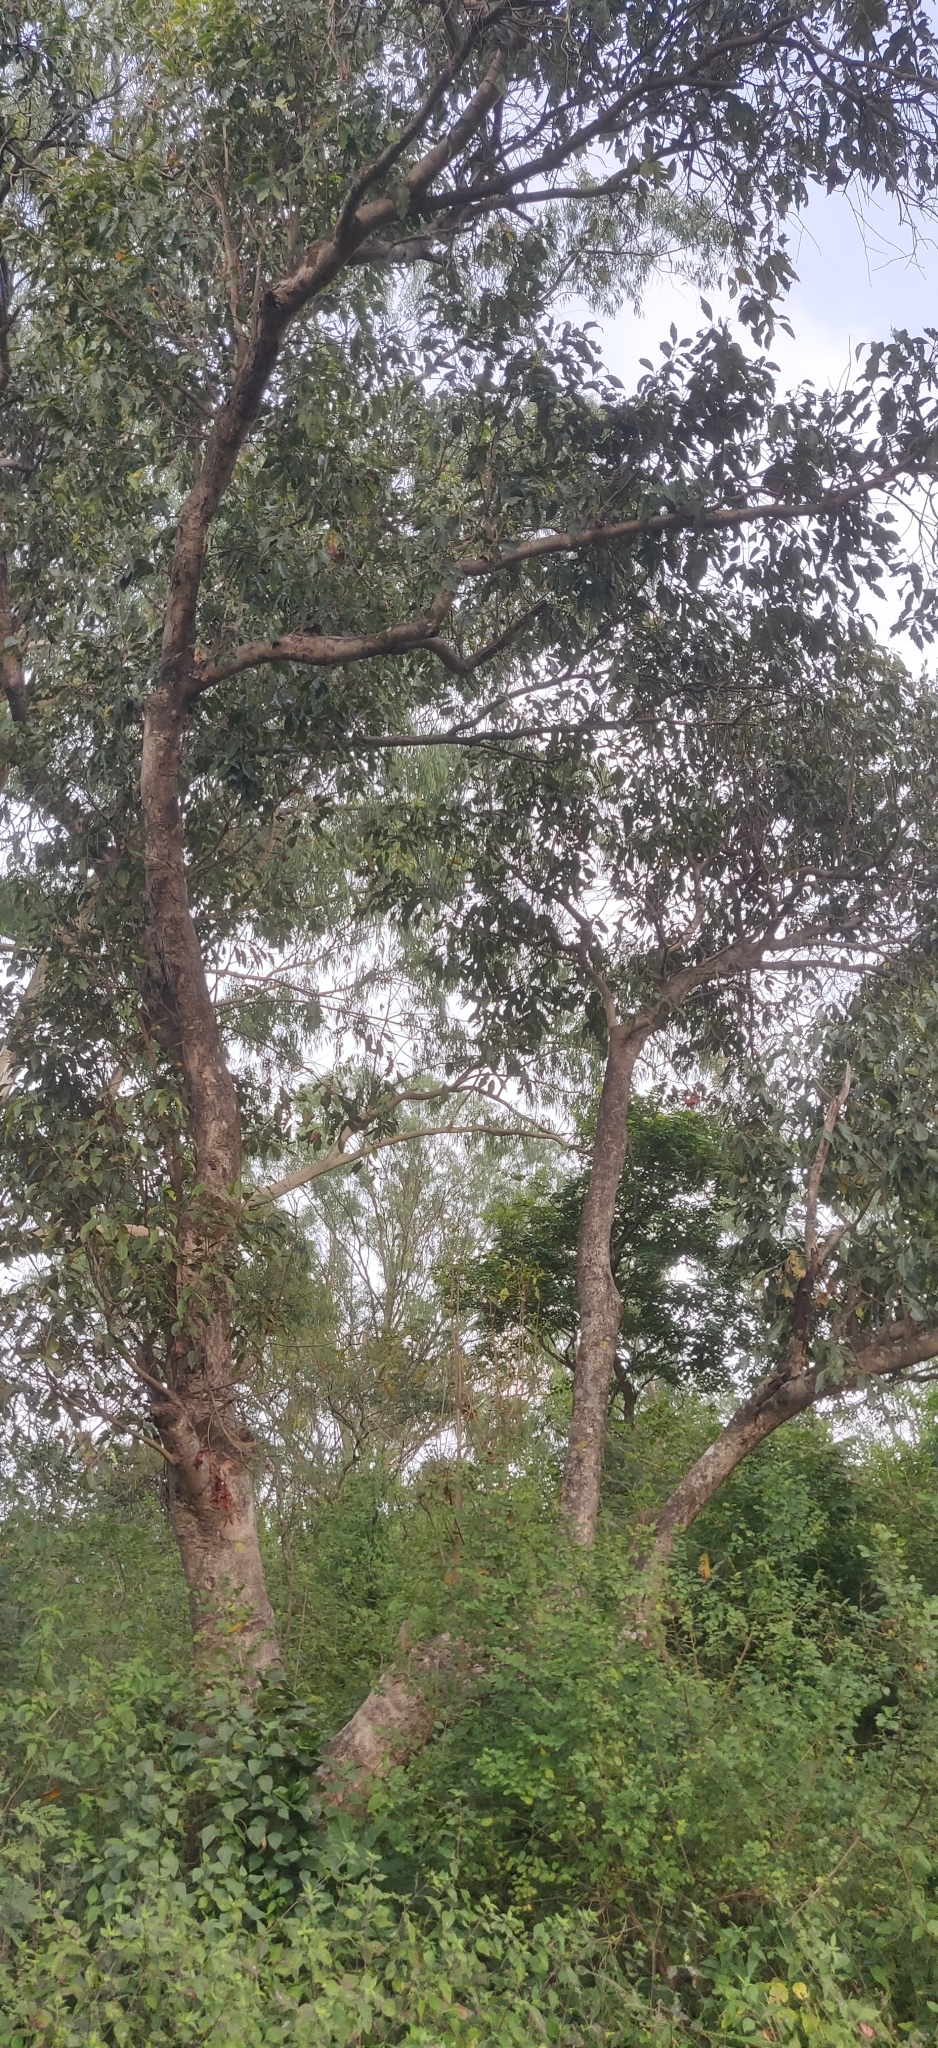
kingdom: Plantae
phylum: Tracheophyta
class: Magnoliopsida
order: Myrtales
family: Myrtaceae
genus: Syzygium
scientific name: Syzygium cumini
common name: Java plum
